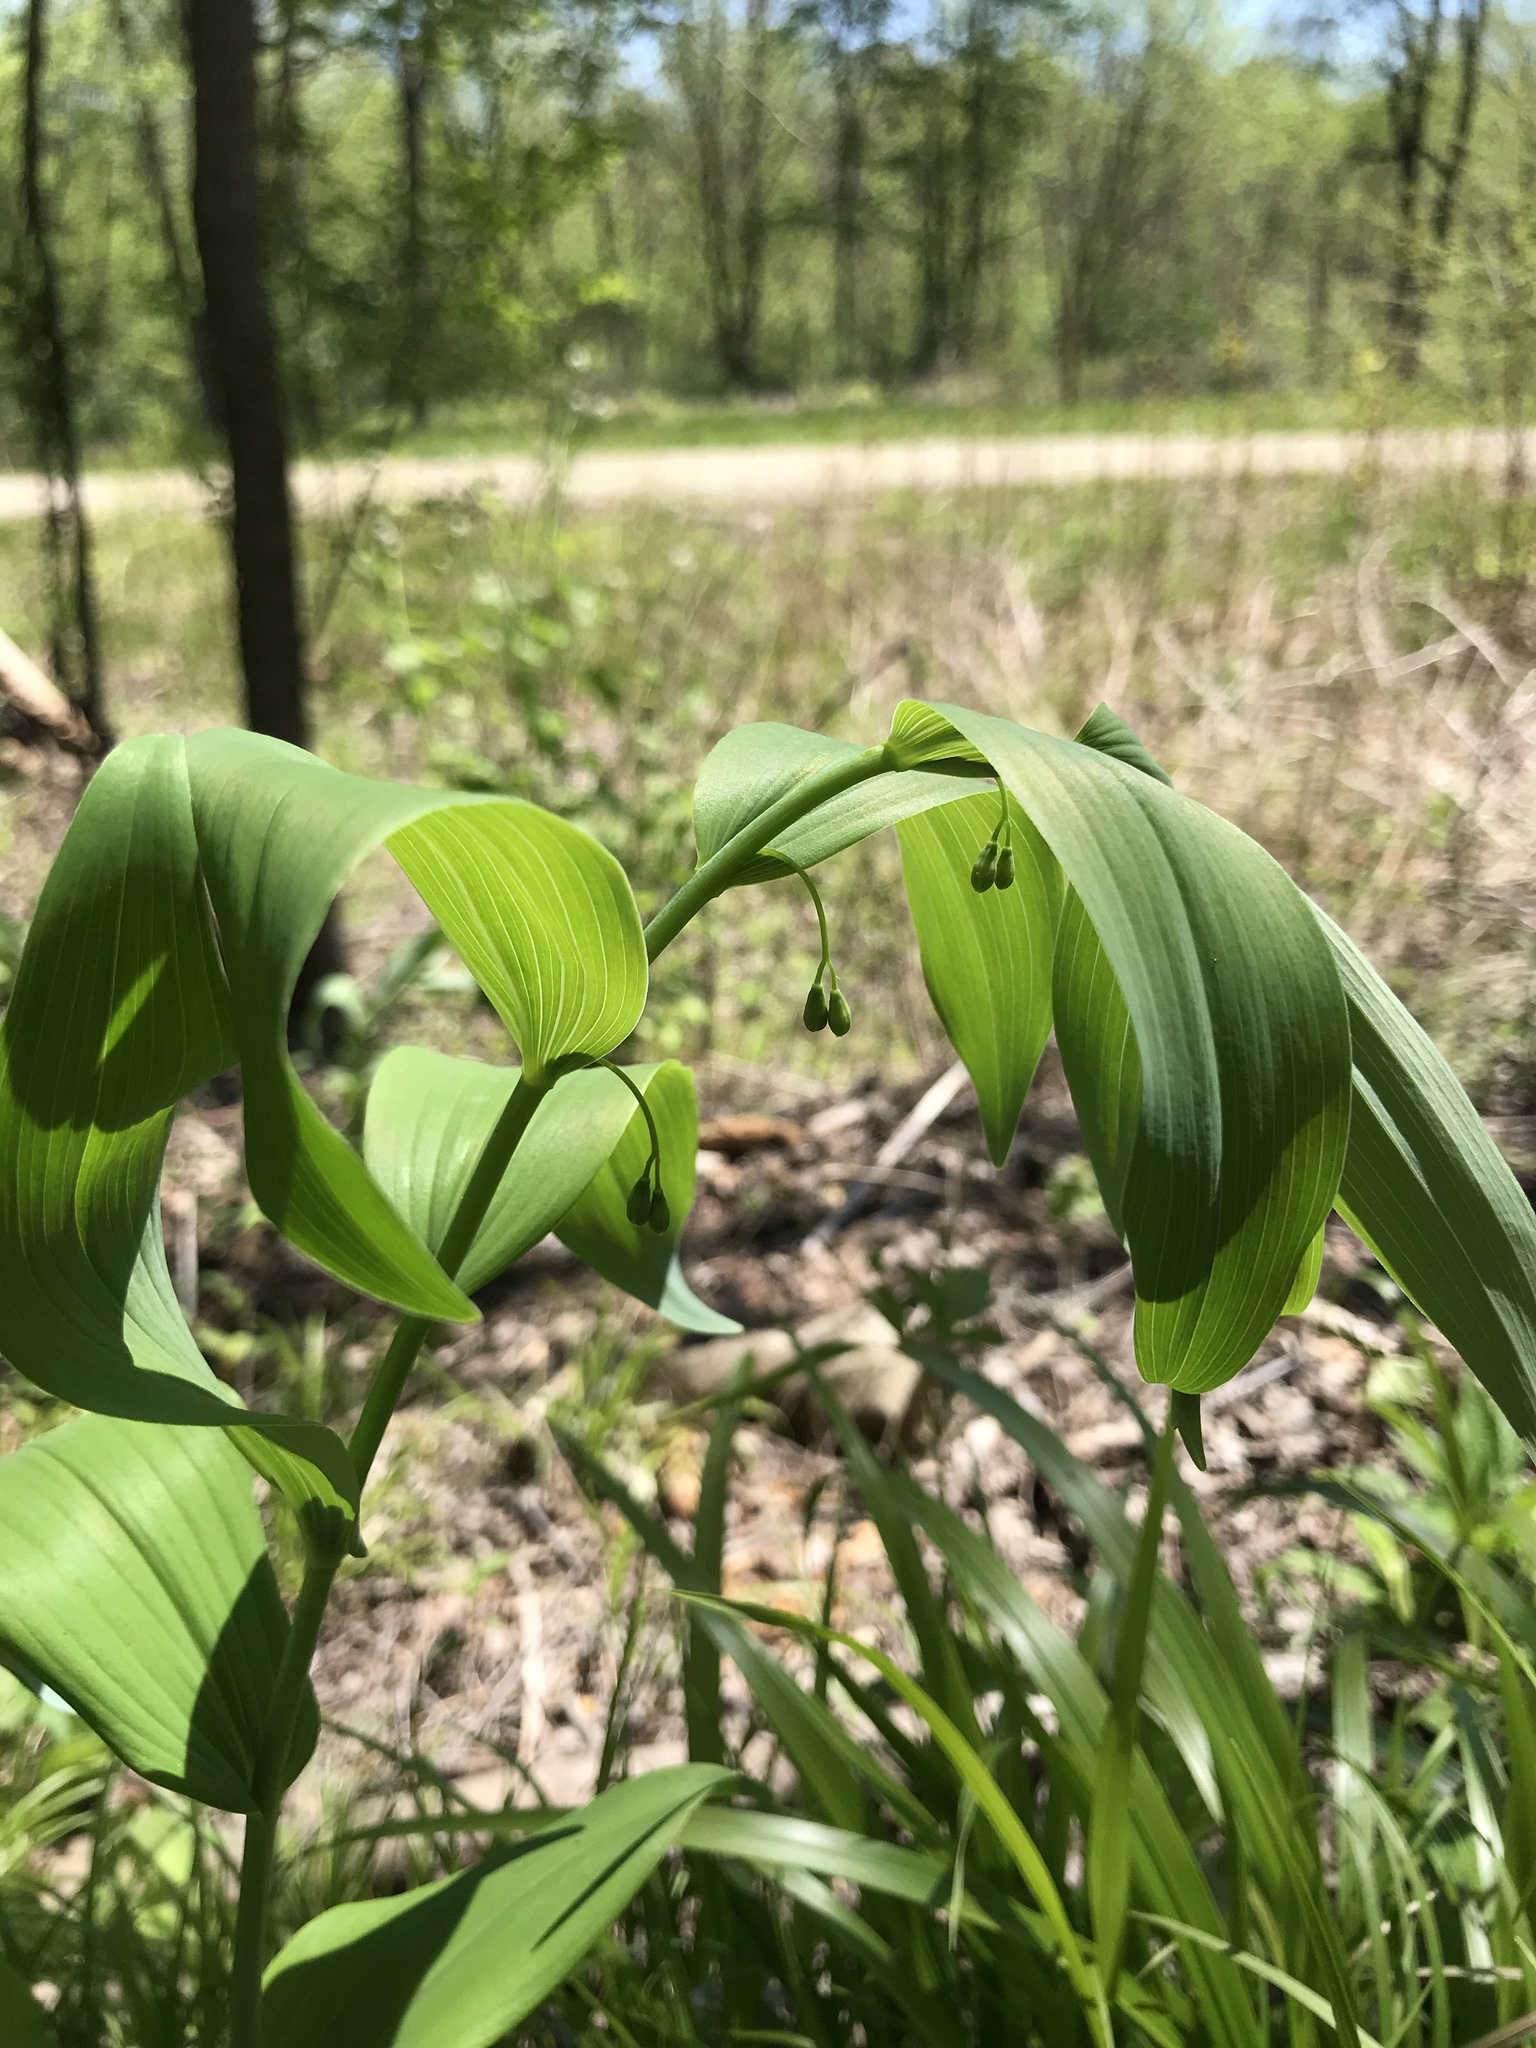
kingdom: Plantae
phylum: Tracheophyta
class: Liliopsida
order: Asparagales
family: Asparagaceae
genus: Polygonatum
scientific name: Polygonatum biflorum
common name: American solomon's-seal
